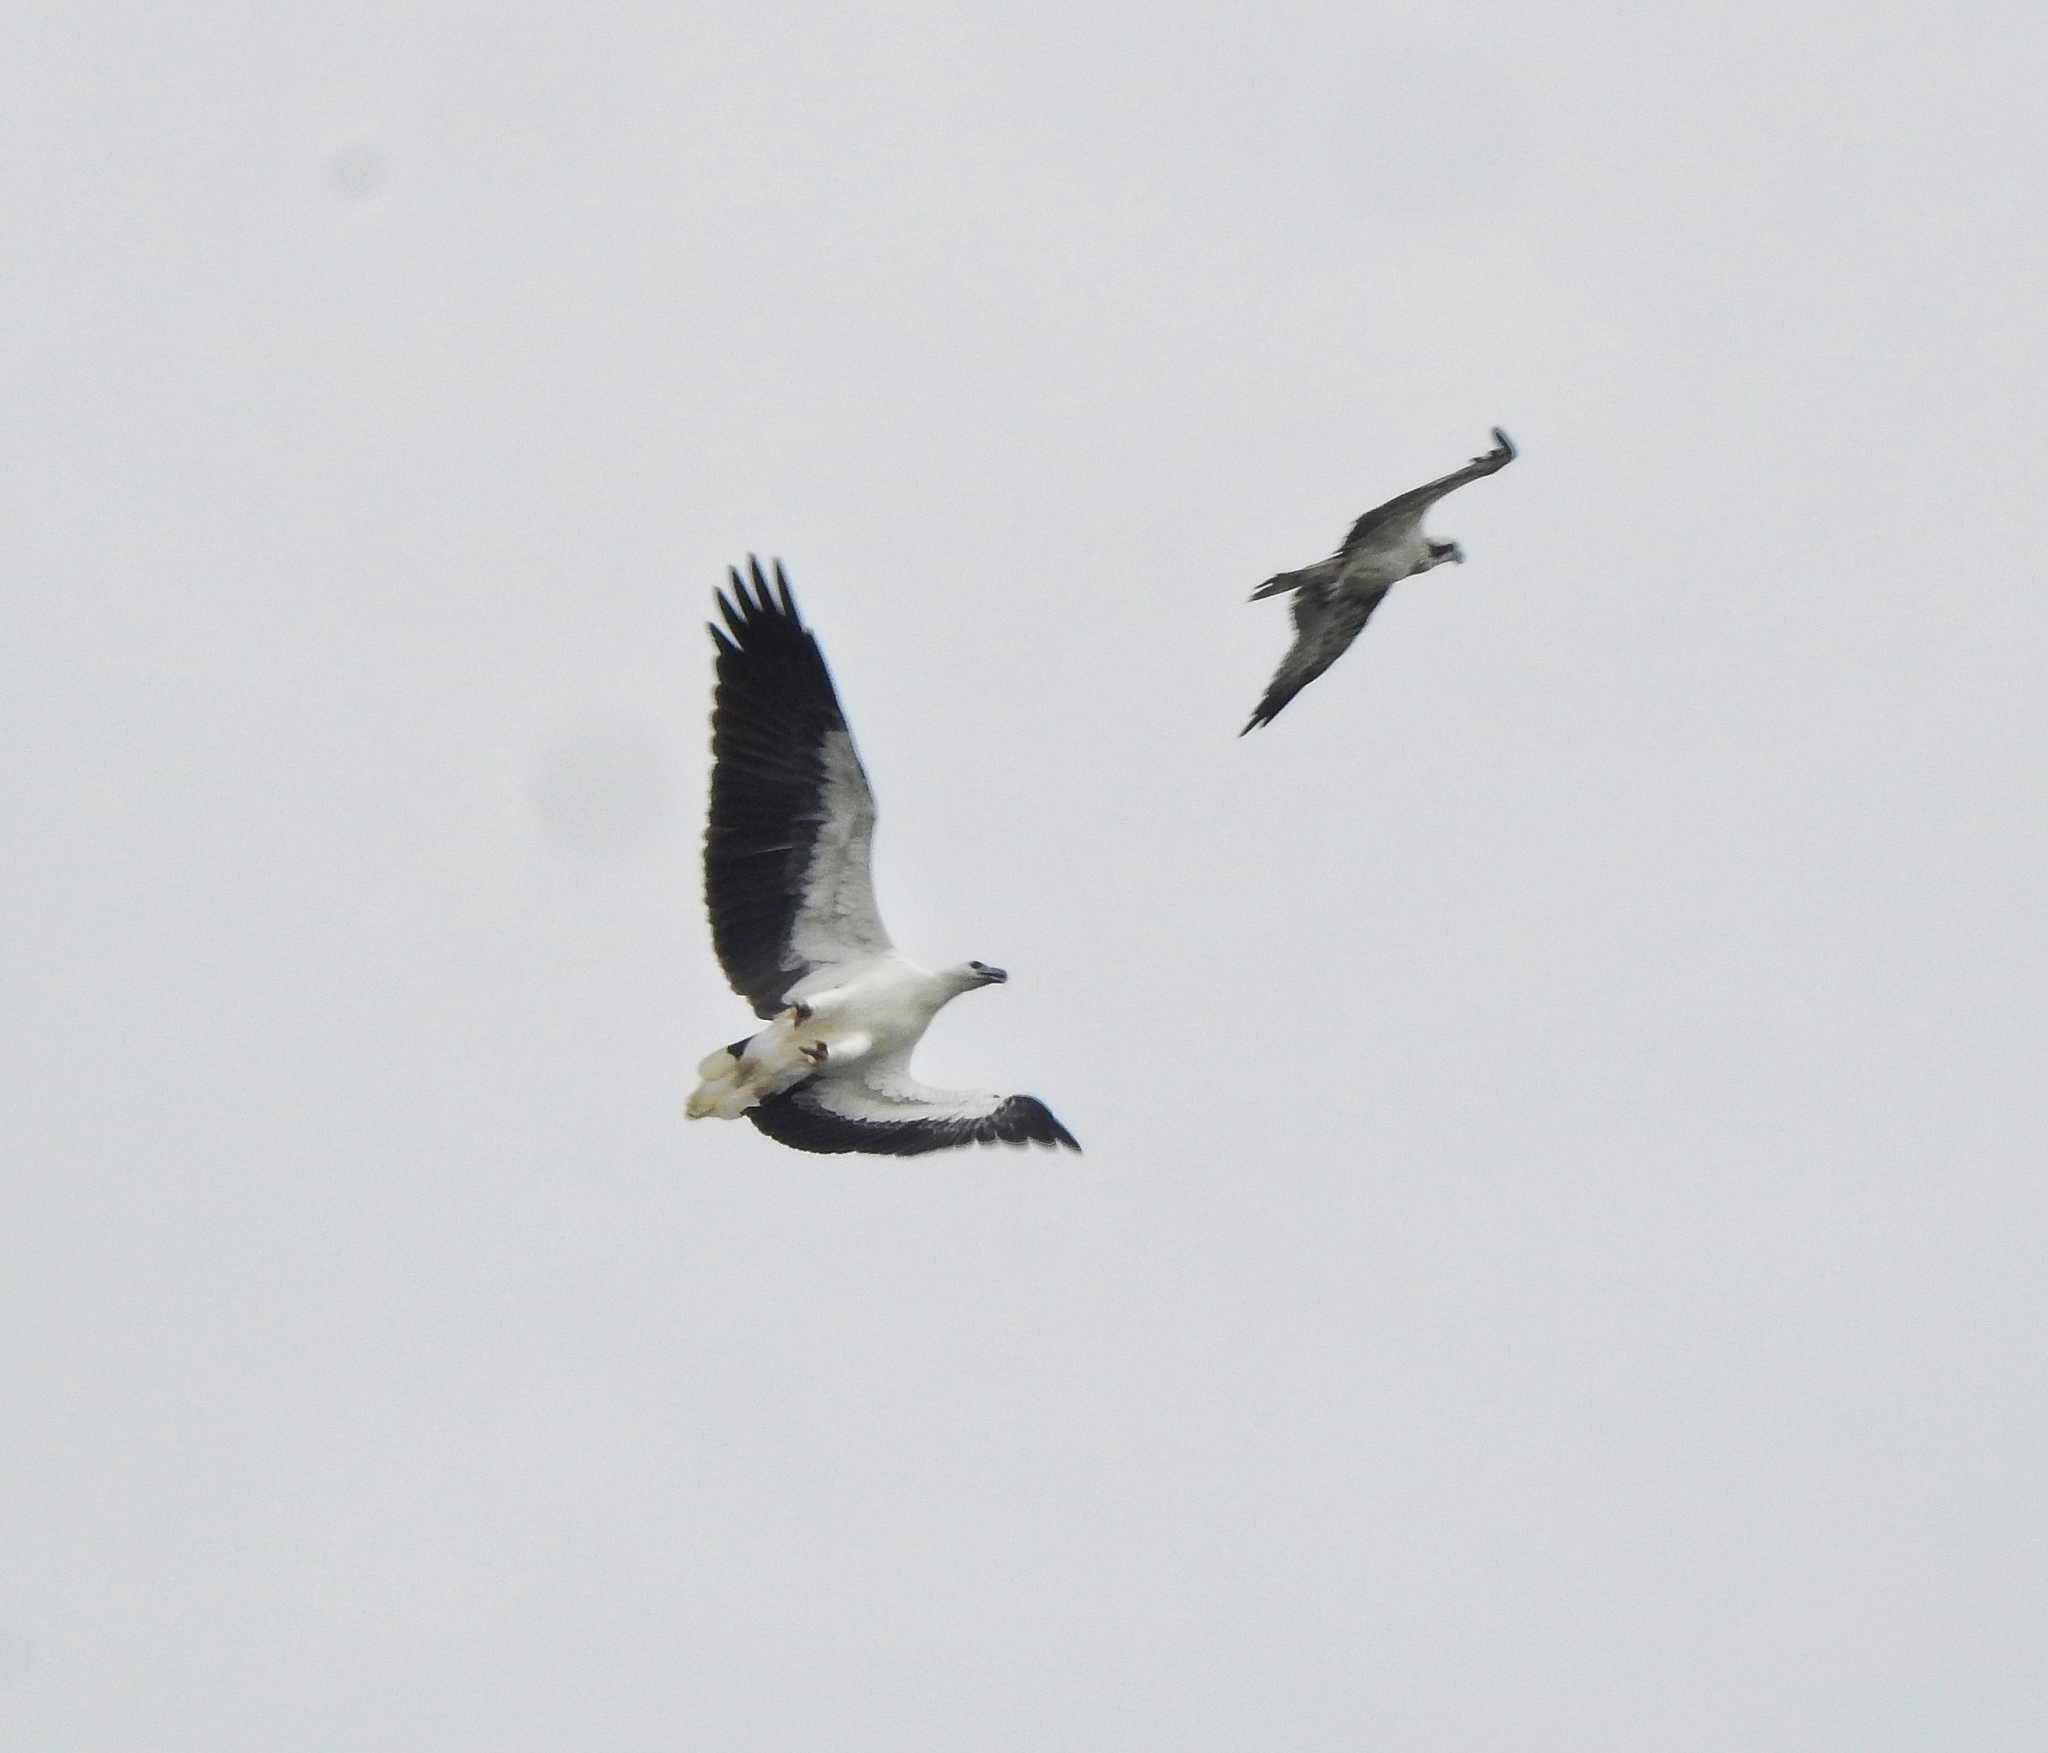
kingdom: Animalia
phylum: Chordata
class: Aves
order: Accipitriformes
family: Pandionidae
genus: Pandion
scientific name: Pandion haliaetus
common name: Osprey
